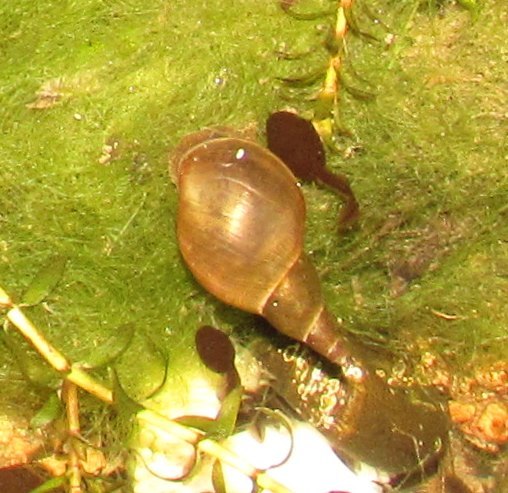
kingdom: Animalia
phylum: Mollusca
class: Gastropoda
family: Lymnaeidae
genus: Lymnaea
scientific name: Lymnaea stagnalis
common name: Great pond snail
